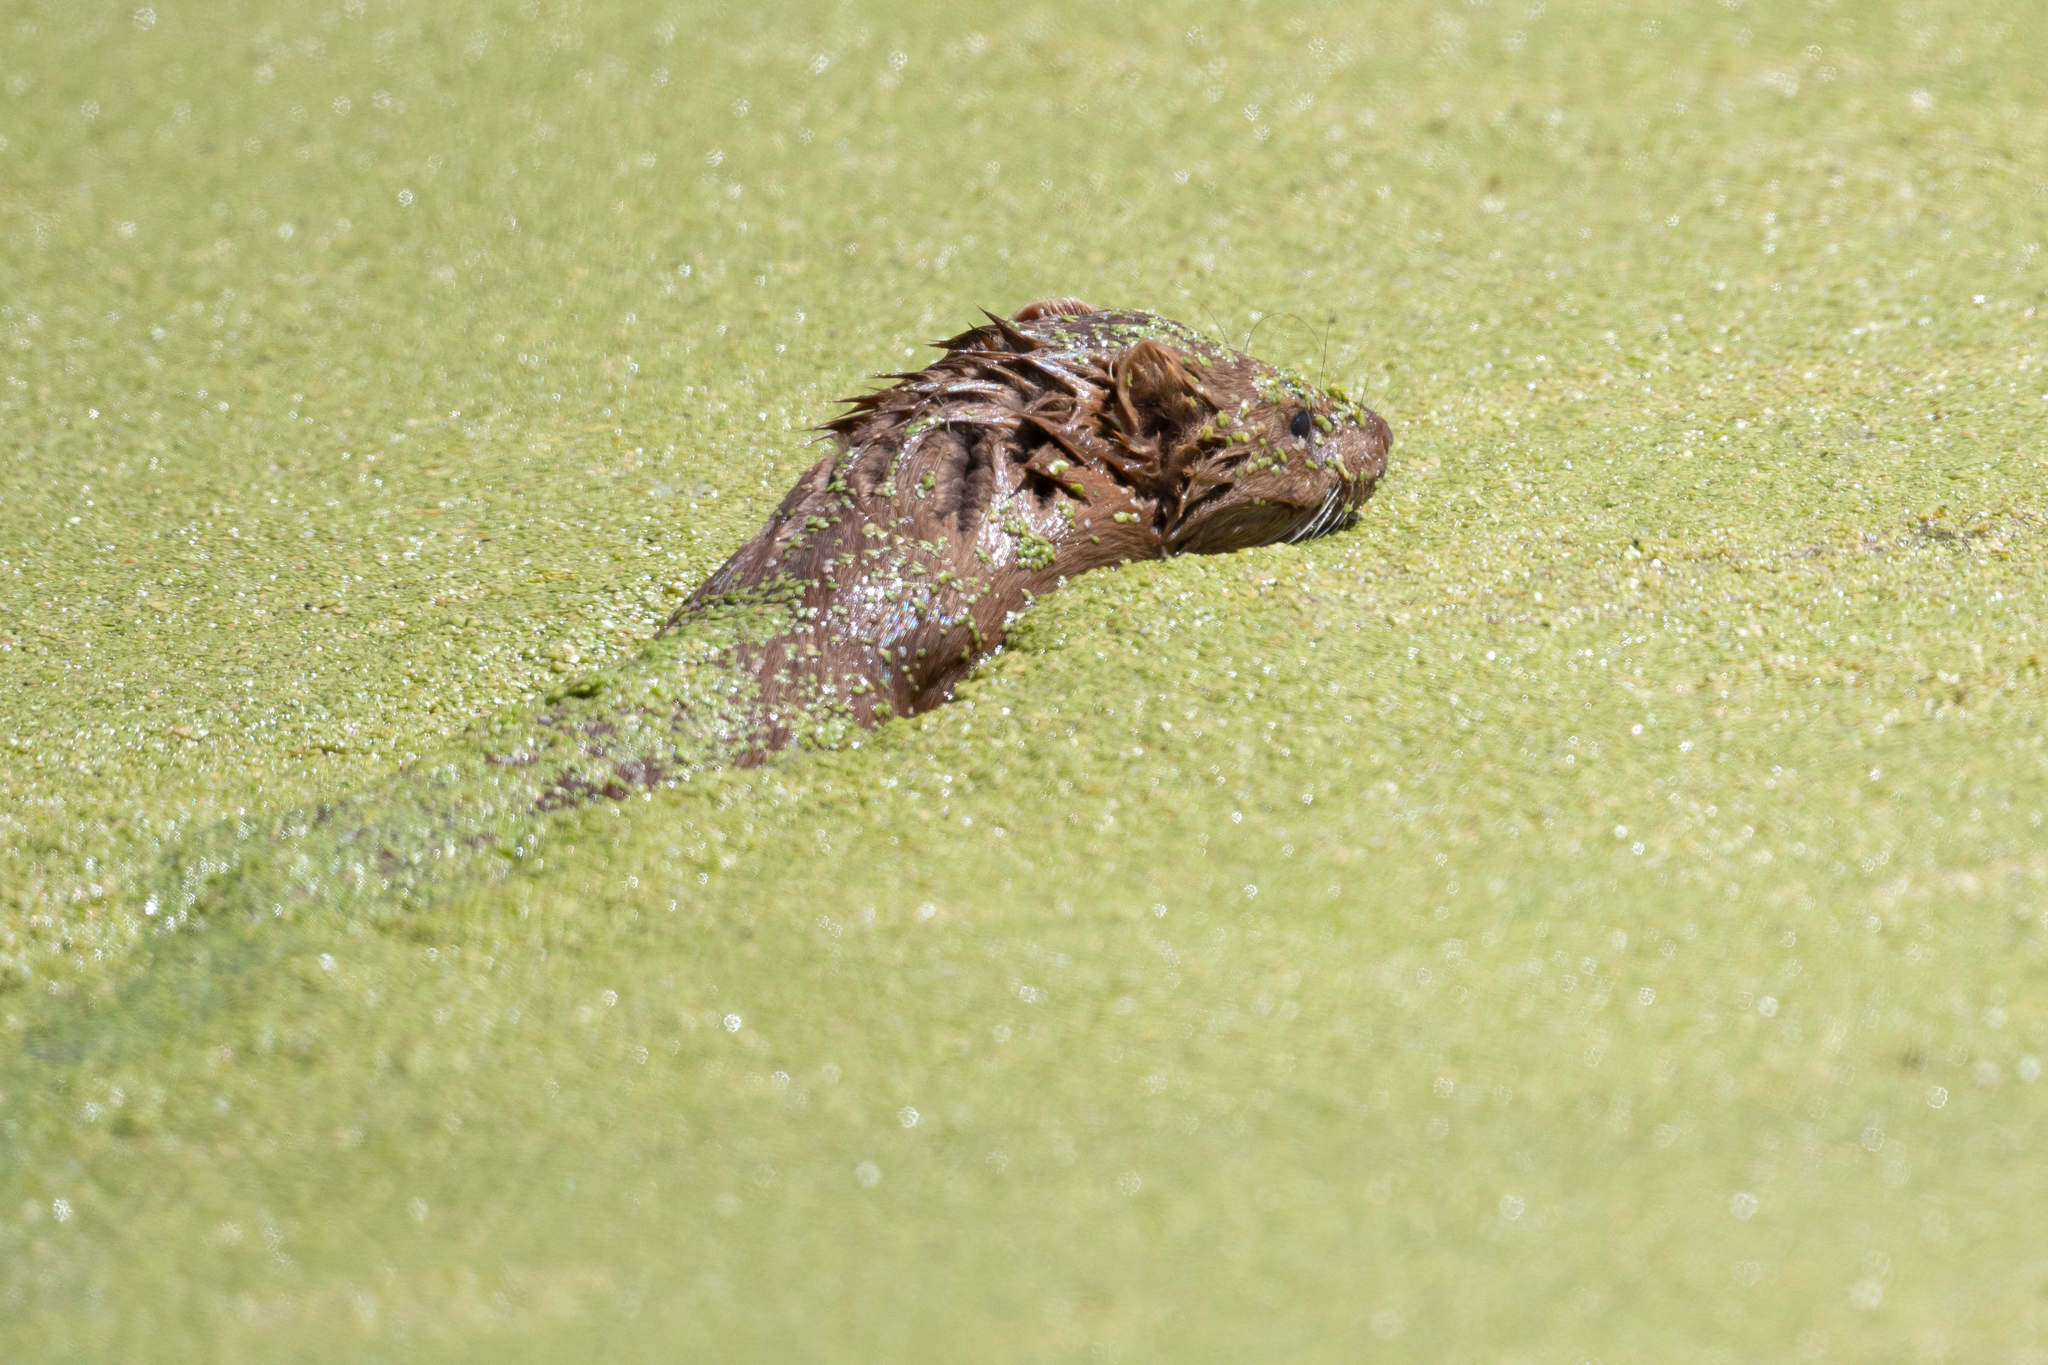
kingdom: Animalia
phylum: Chordata
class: Mammalia
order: Carnivora
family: Mustelidae
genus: Mustela
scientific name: Mustela
